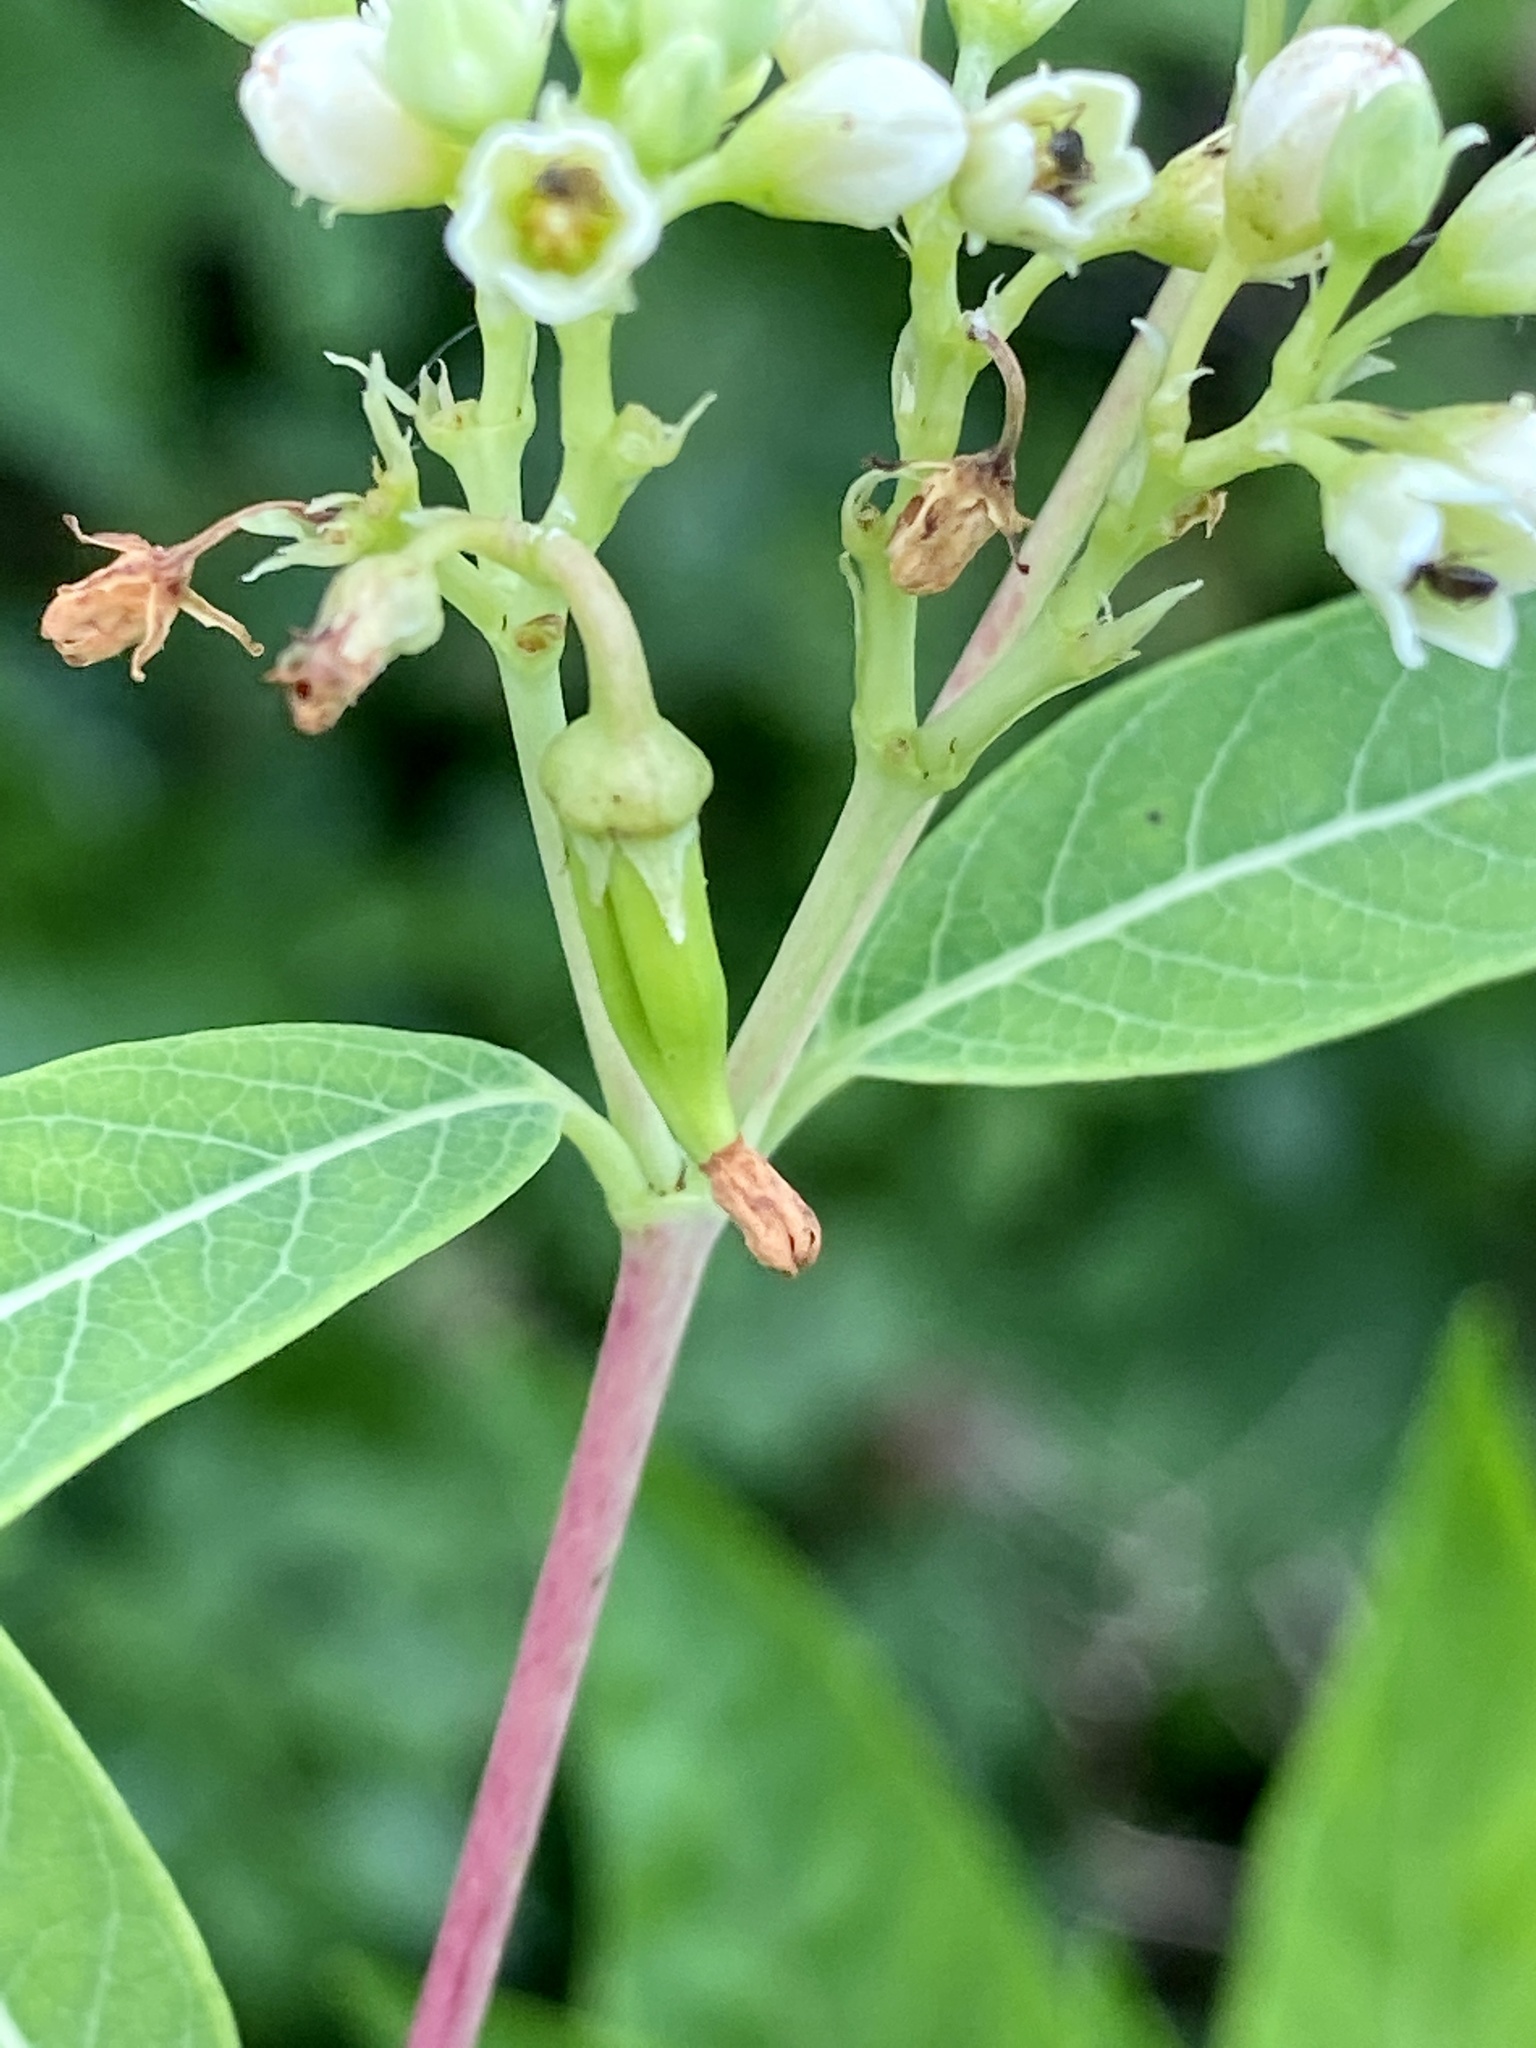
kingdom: Plantae
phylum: Tracheophyta
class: Magnoliopsida
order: Gentianales
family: Apocynaceae
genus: Apocynum
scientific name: Apocynum cannabinum
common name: Hemp dogbane
